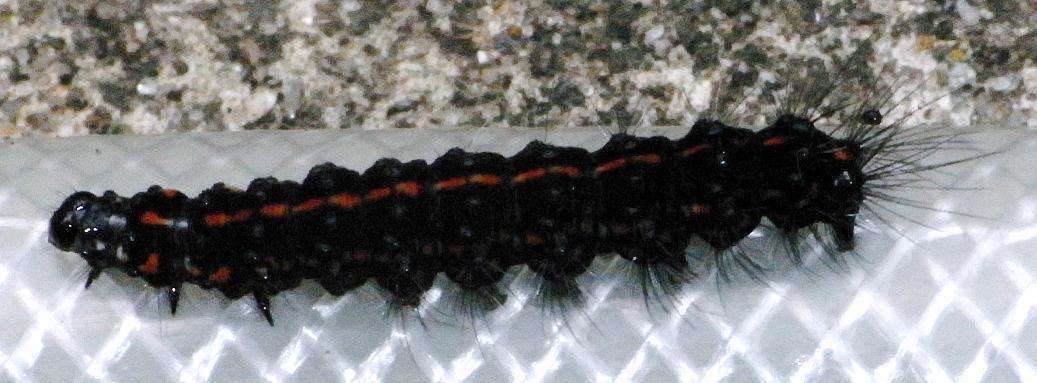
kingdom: Animalia
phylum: Arthropoda
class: Insecta
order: Lepidoptera
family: Erebidae
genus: Nyctemera
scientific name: Nyctemera amicus
